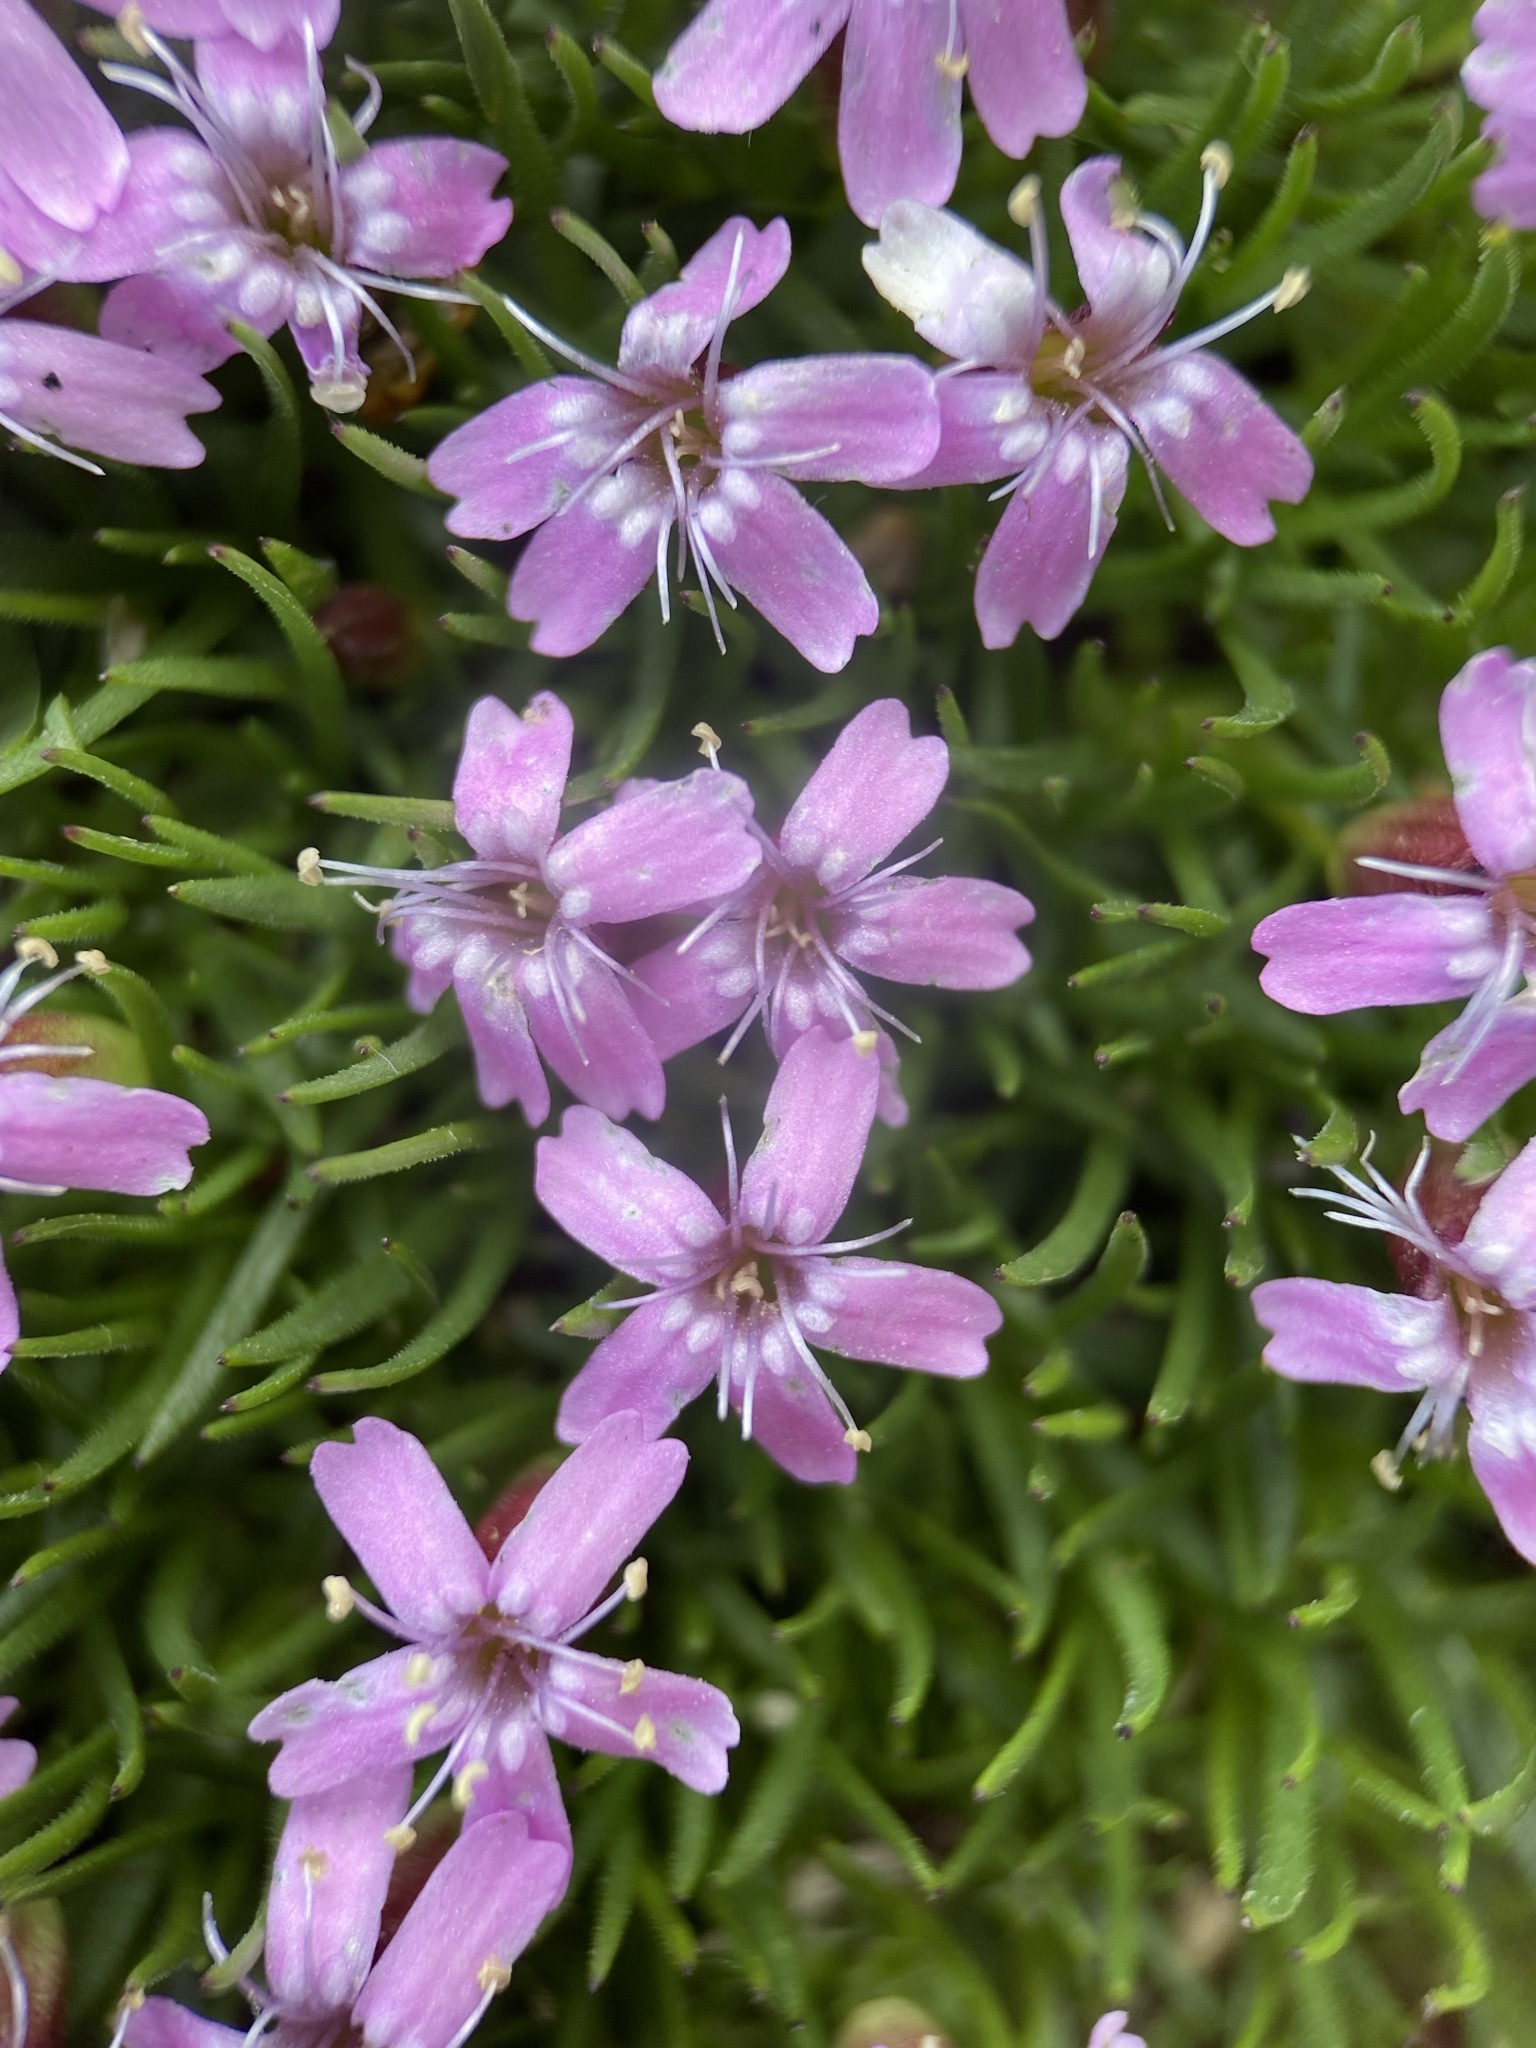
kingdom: Plantae
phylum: Tracheophyta
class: Magnoliopsida
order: Caryophyllales
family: Caryophyllaceae
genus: Silene
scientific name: Silene acaulis
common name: Moss campion
